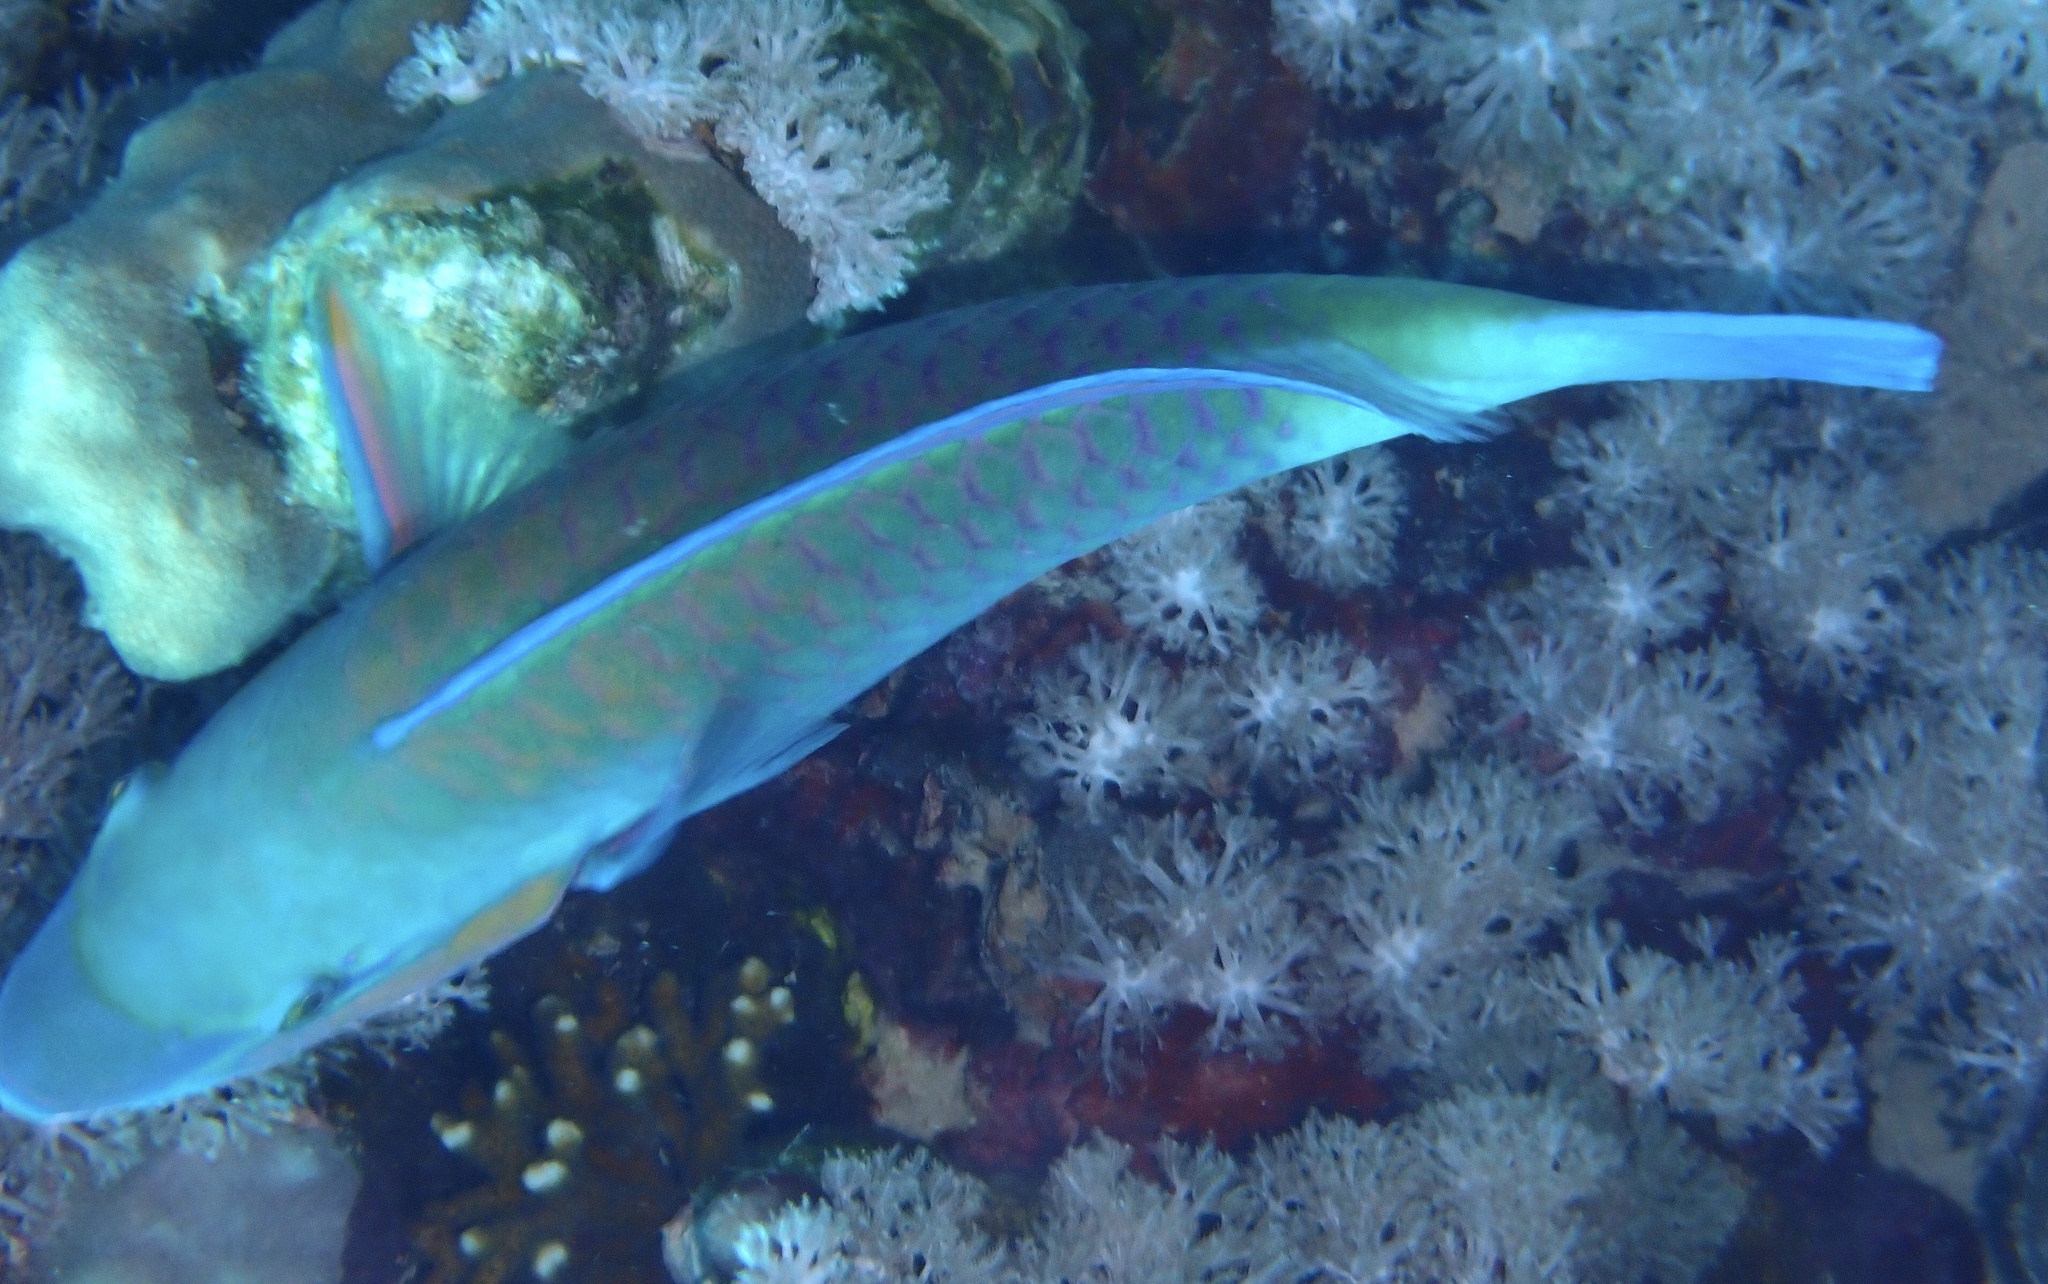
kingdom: Animalia
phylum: Chordata
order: Perciformes
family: Scaridae
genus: Chlorurus
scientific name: Chlorurus sordidus
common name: Bullethead parrotfish
